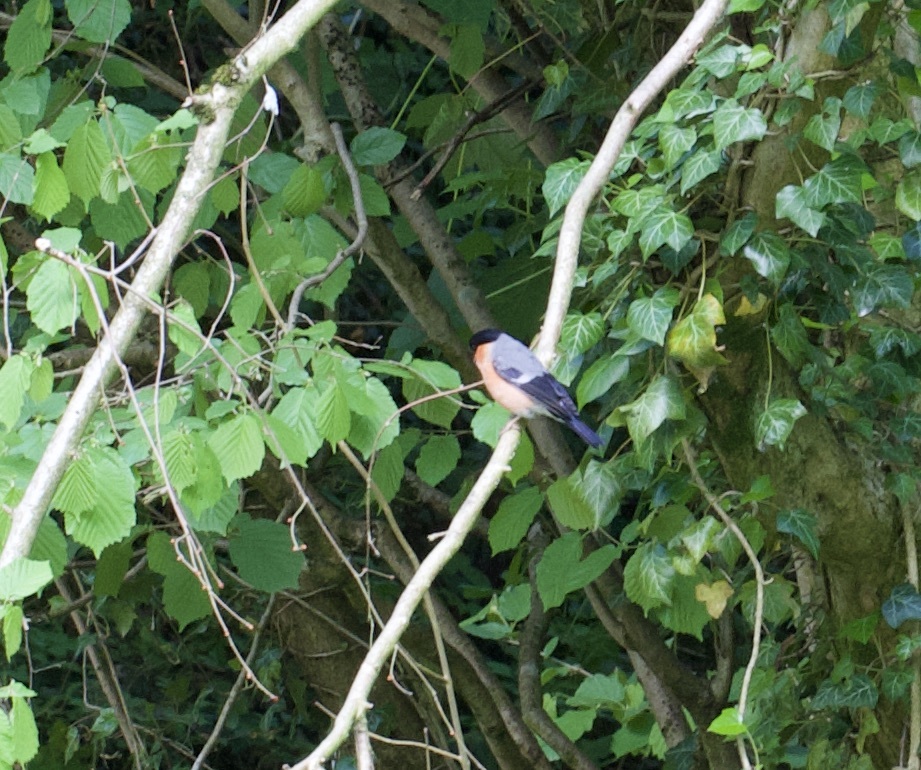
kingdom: Animalia
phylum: Chordata
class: Aves
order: Passeriformes
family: Fringillidae
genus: Pyrrhula
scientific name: Pyrrhula pyrrhula
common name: Eurasian bullfinch
